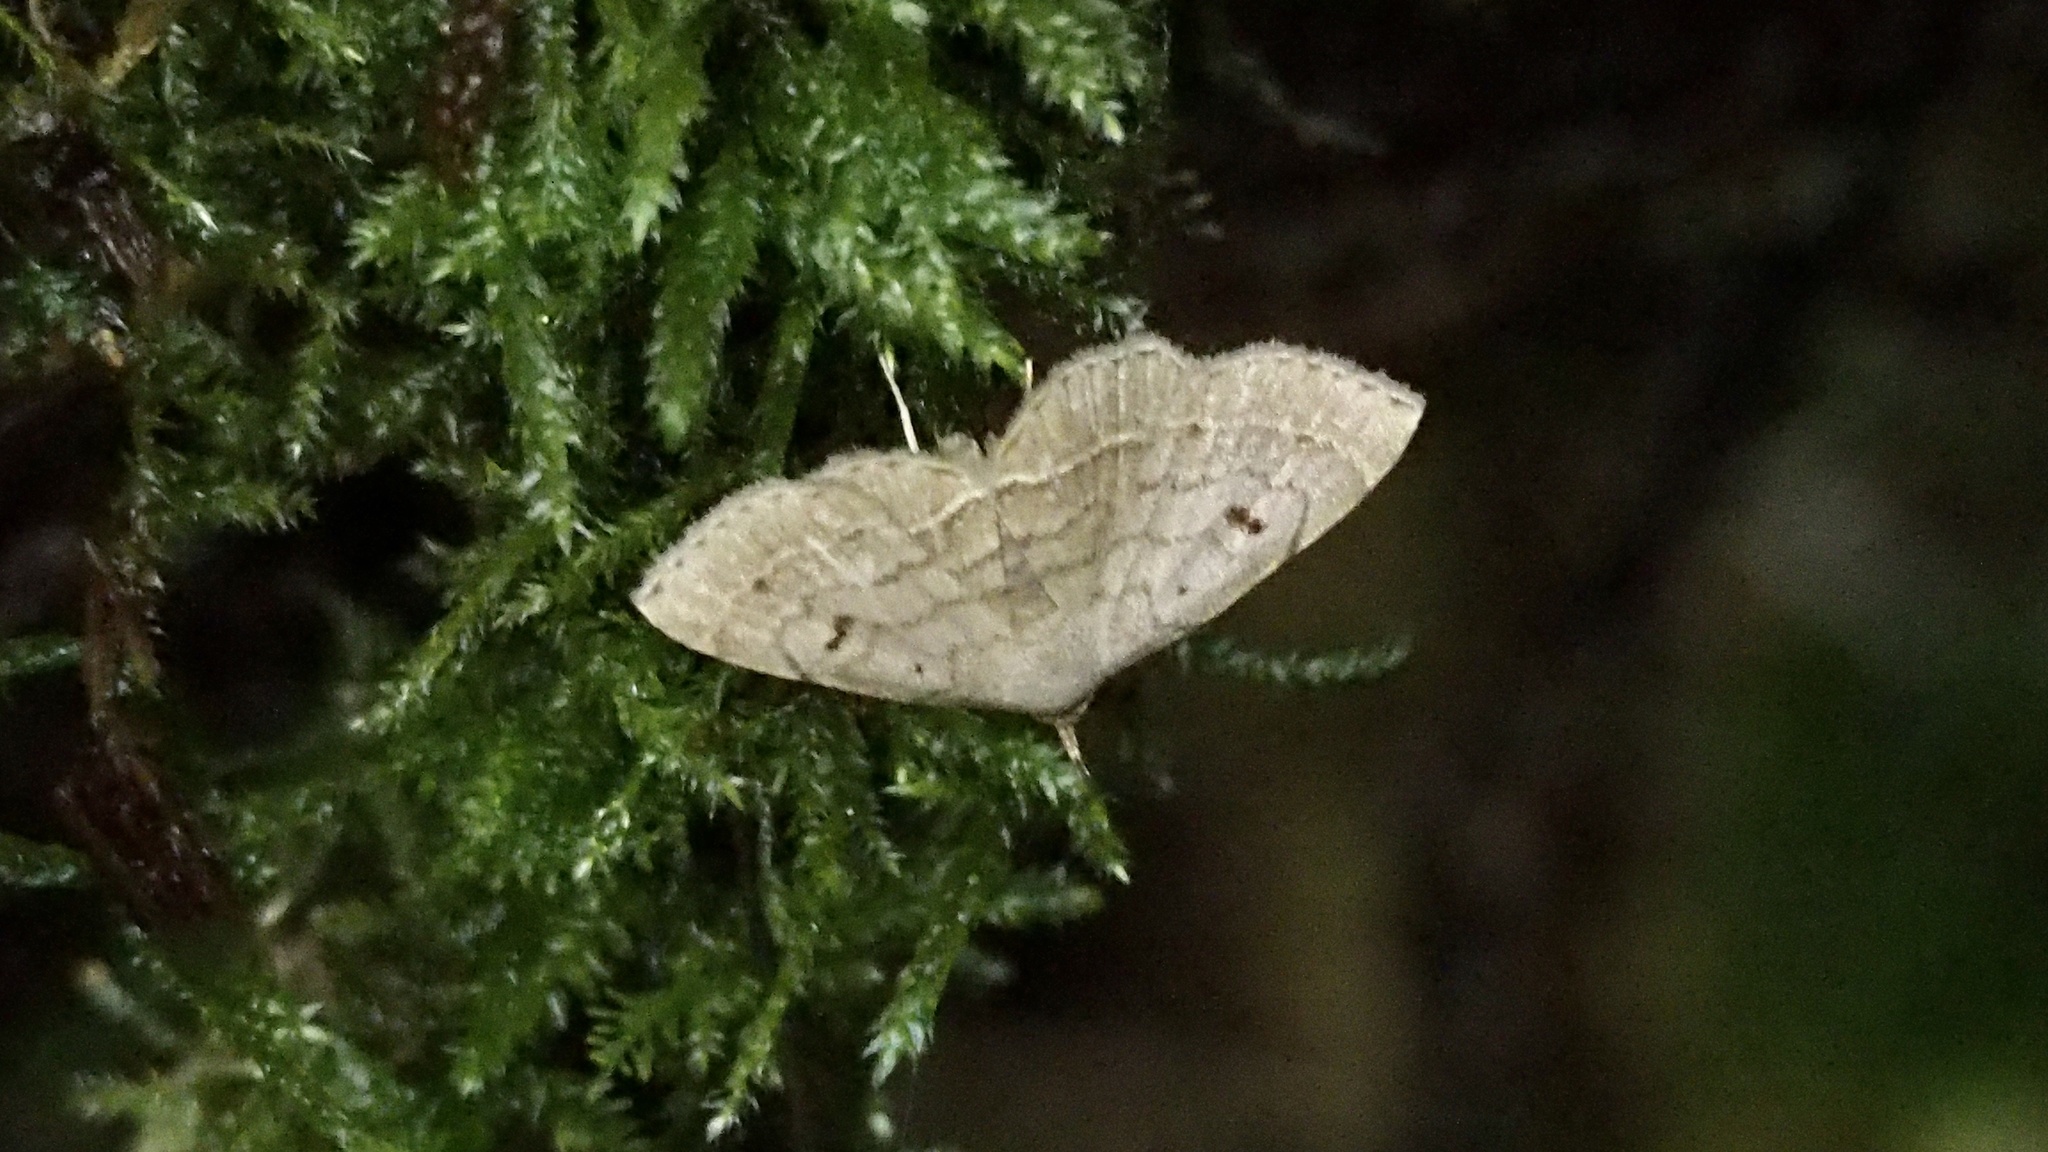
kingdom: Animalia
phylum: Arthropoda
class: Insecta
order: Lepidoptera
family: Erebidae
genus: Herminia
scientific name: Herminia fentoni
